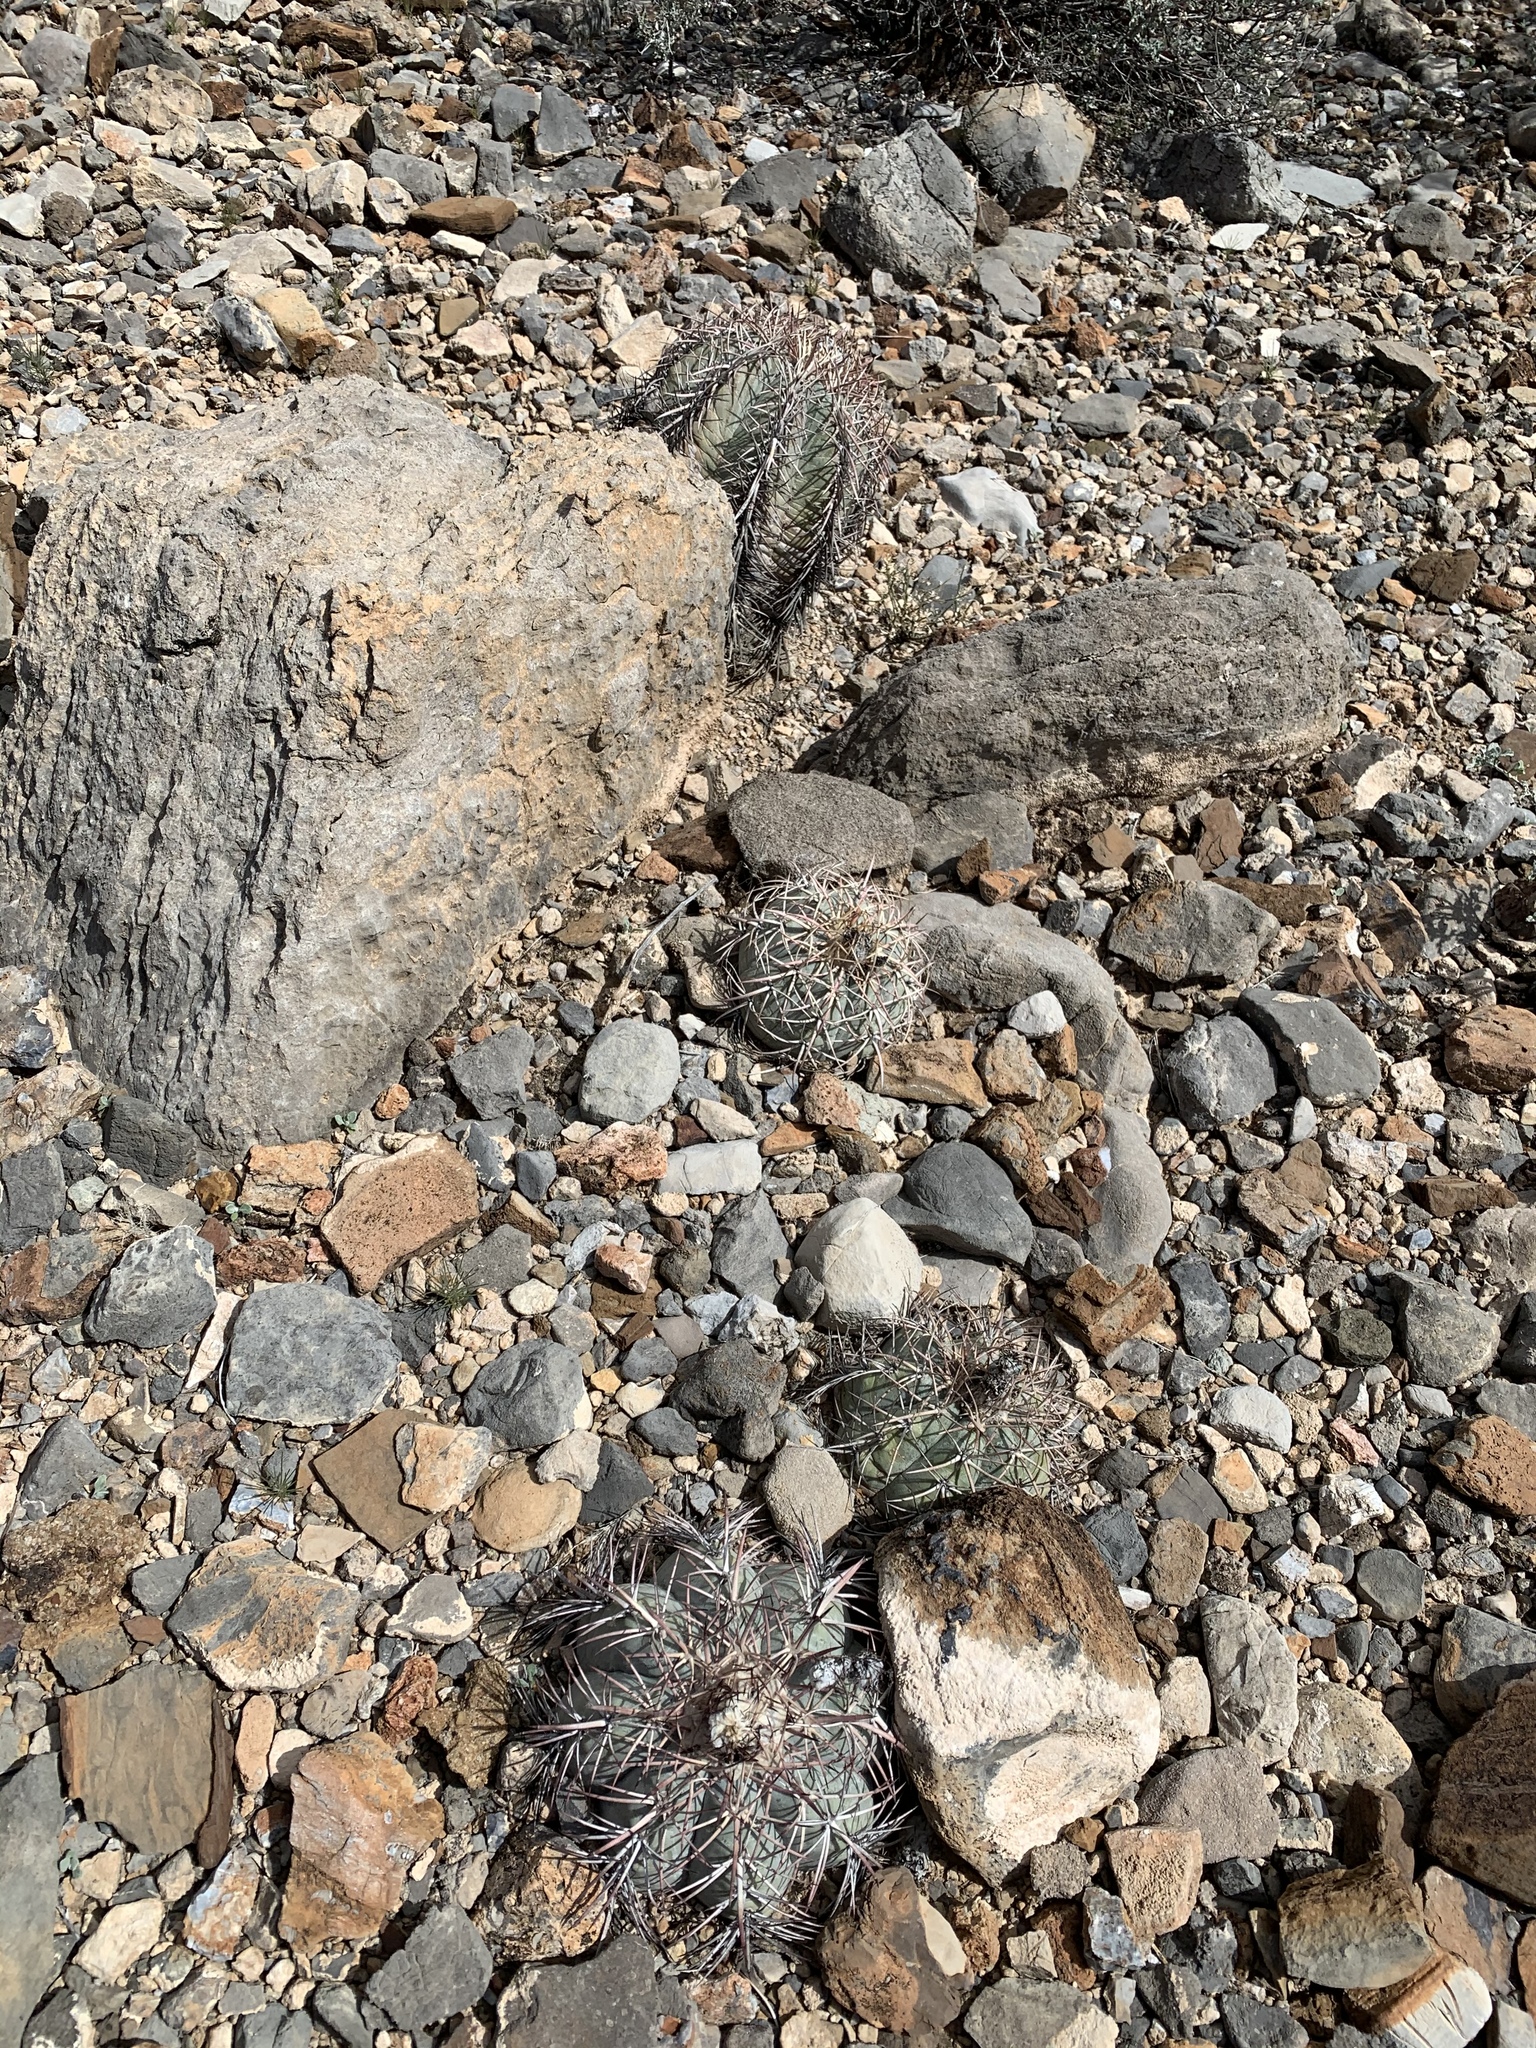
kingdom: Plantae
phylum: Tracheophyta
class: Magnoliopsida
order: Caryophyllales
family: Cactaceae
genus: Echinocactus
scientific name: Echinocactus horizonthalonius
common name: Devilshead
